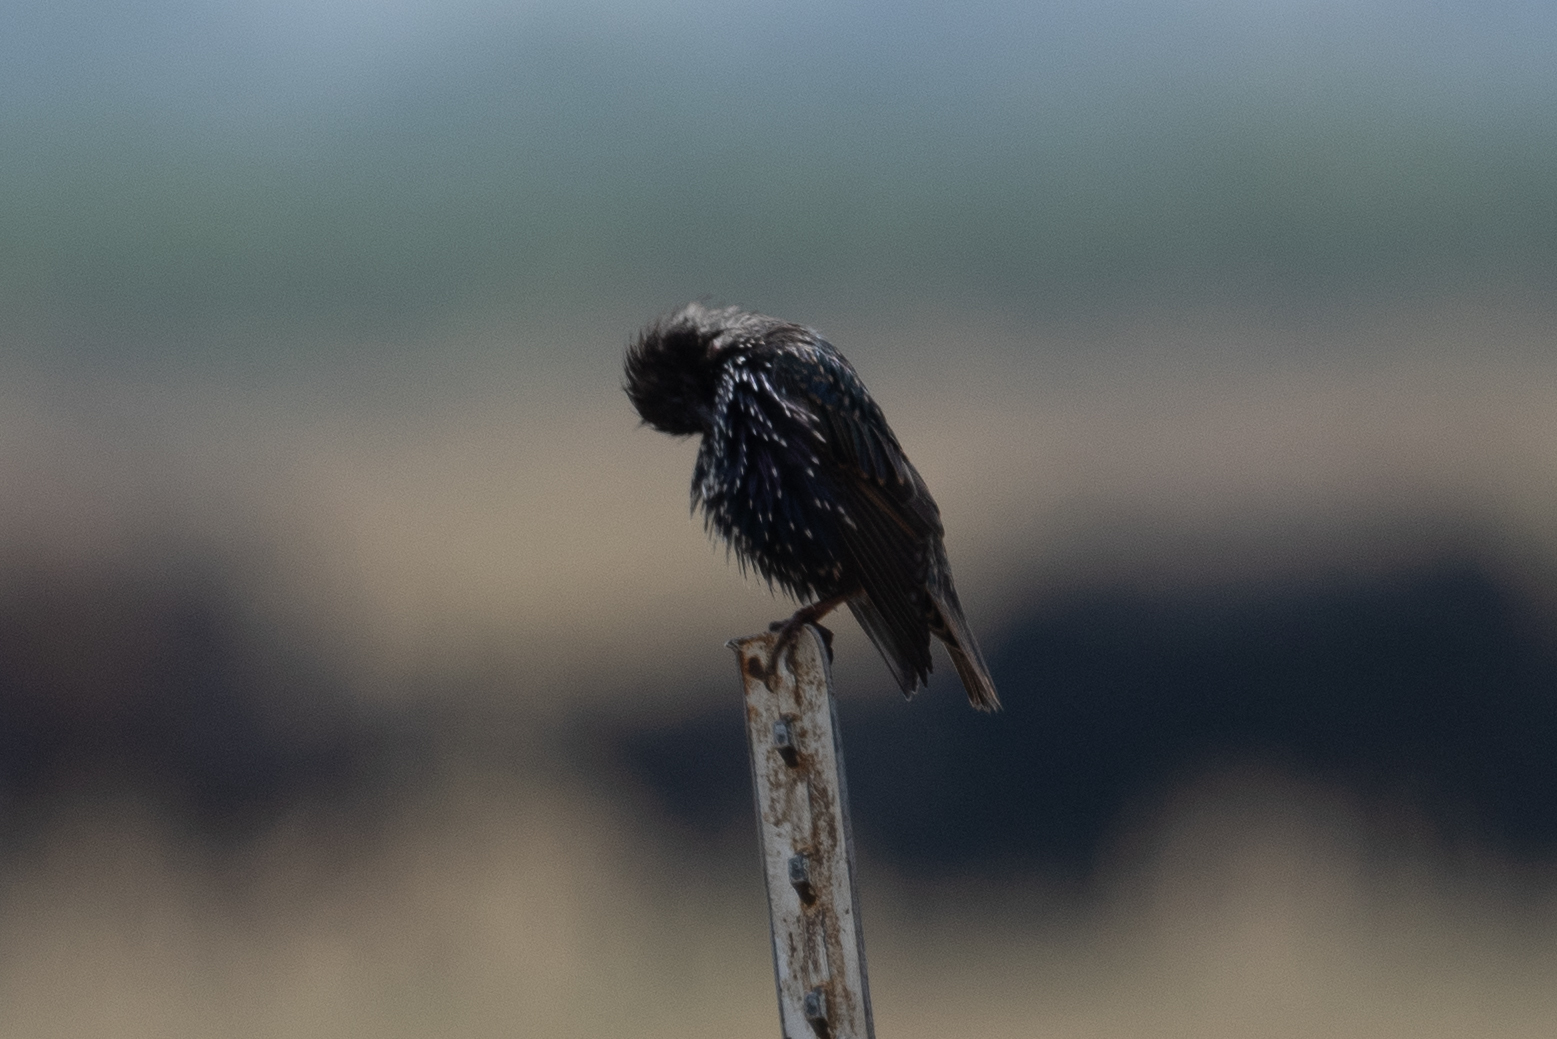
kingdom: Animalia
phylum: Chordata
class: Aves
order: Passeriformes
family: Sturnidae
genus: Sturnus
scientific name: Sturnus vulgaris
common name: Common starling
